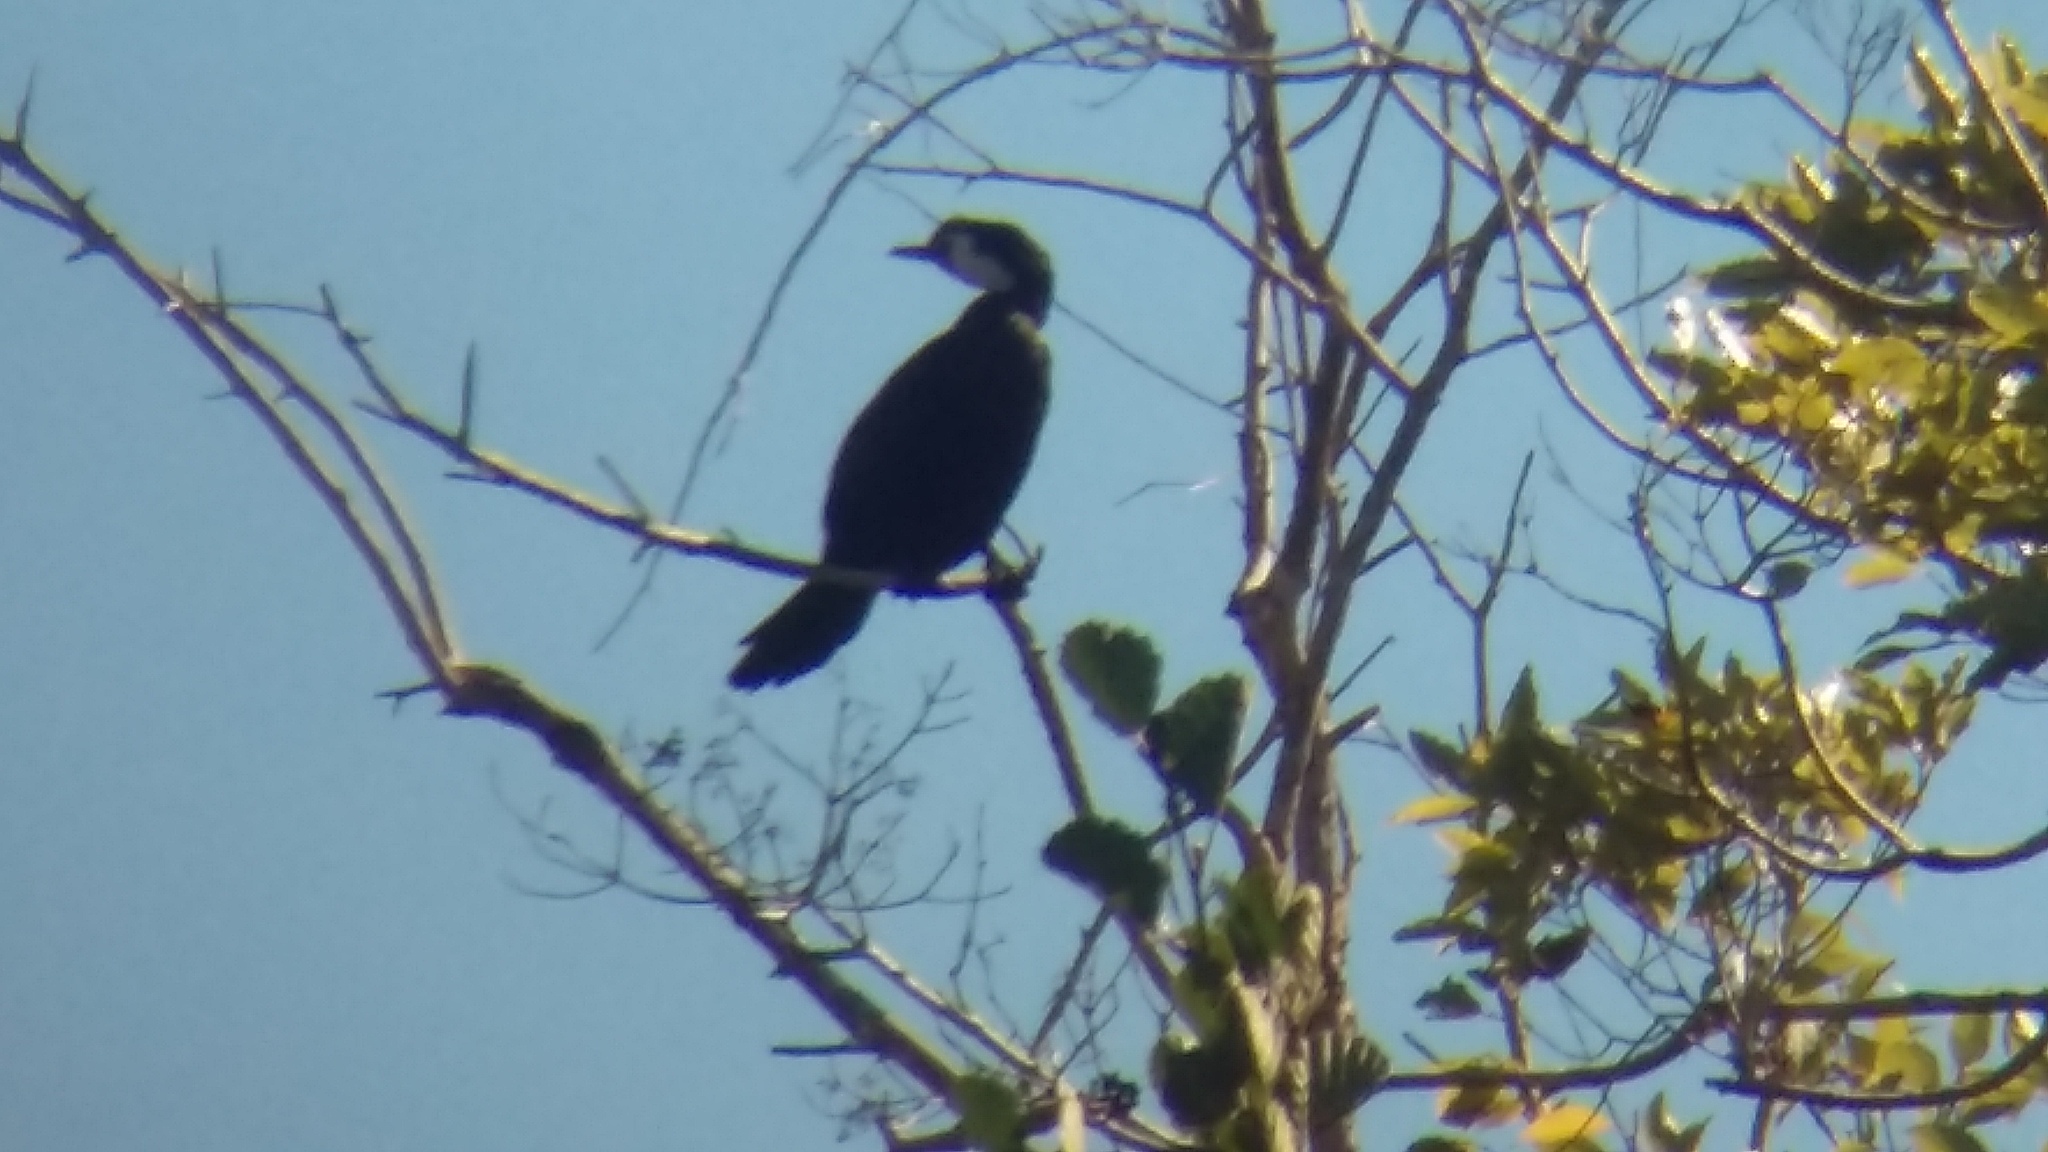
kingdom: Animalia
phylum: Chordata
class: Aves
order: Suliformes
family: Phalacrocoracidae
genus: Microcarbo
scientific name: Microcarbo melanoleucos
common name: Little pied cormorant
